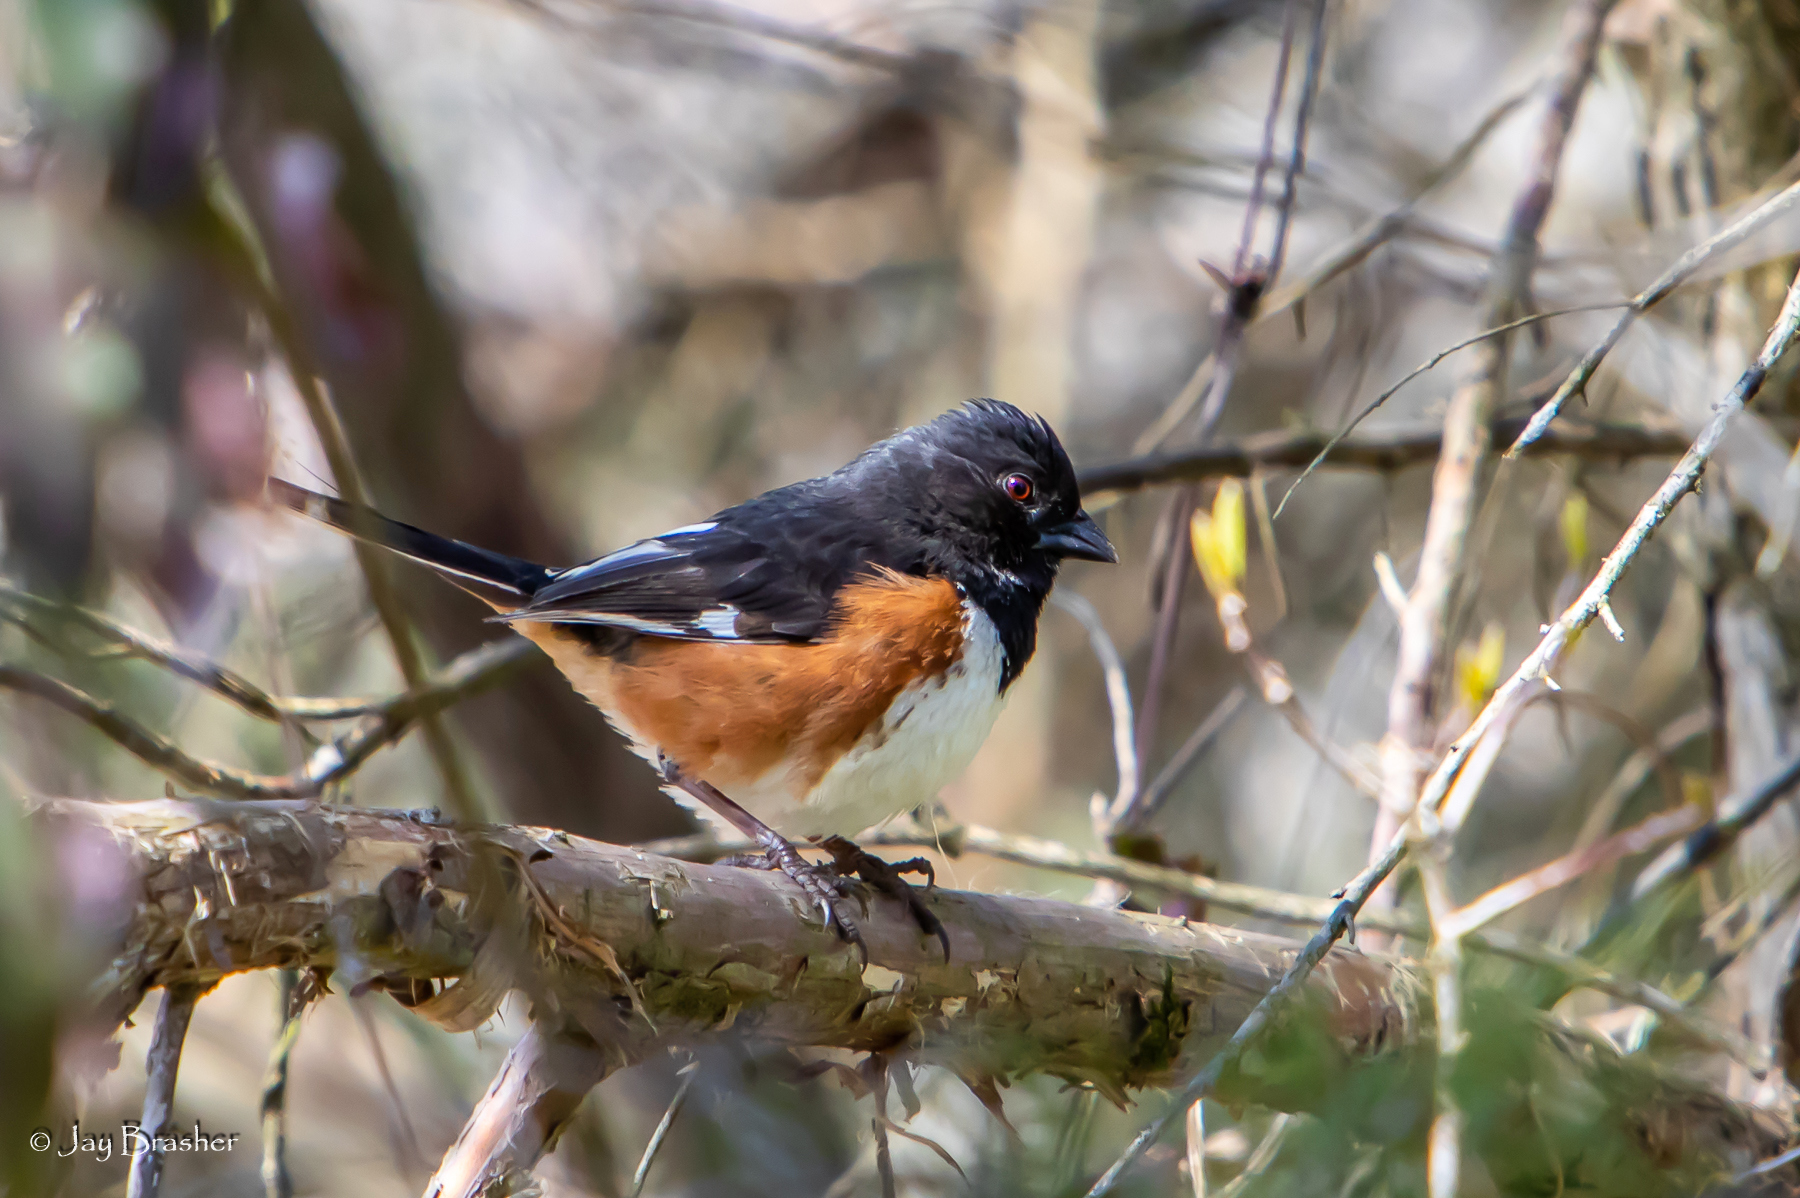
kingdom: Animalia
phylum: Chordata
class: Aves
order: Passeriformes
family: Passerellidae
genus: Pipilo
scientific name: Pipilo erythrophthalmus
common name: Eastern towhee
